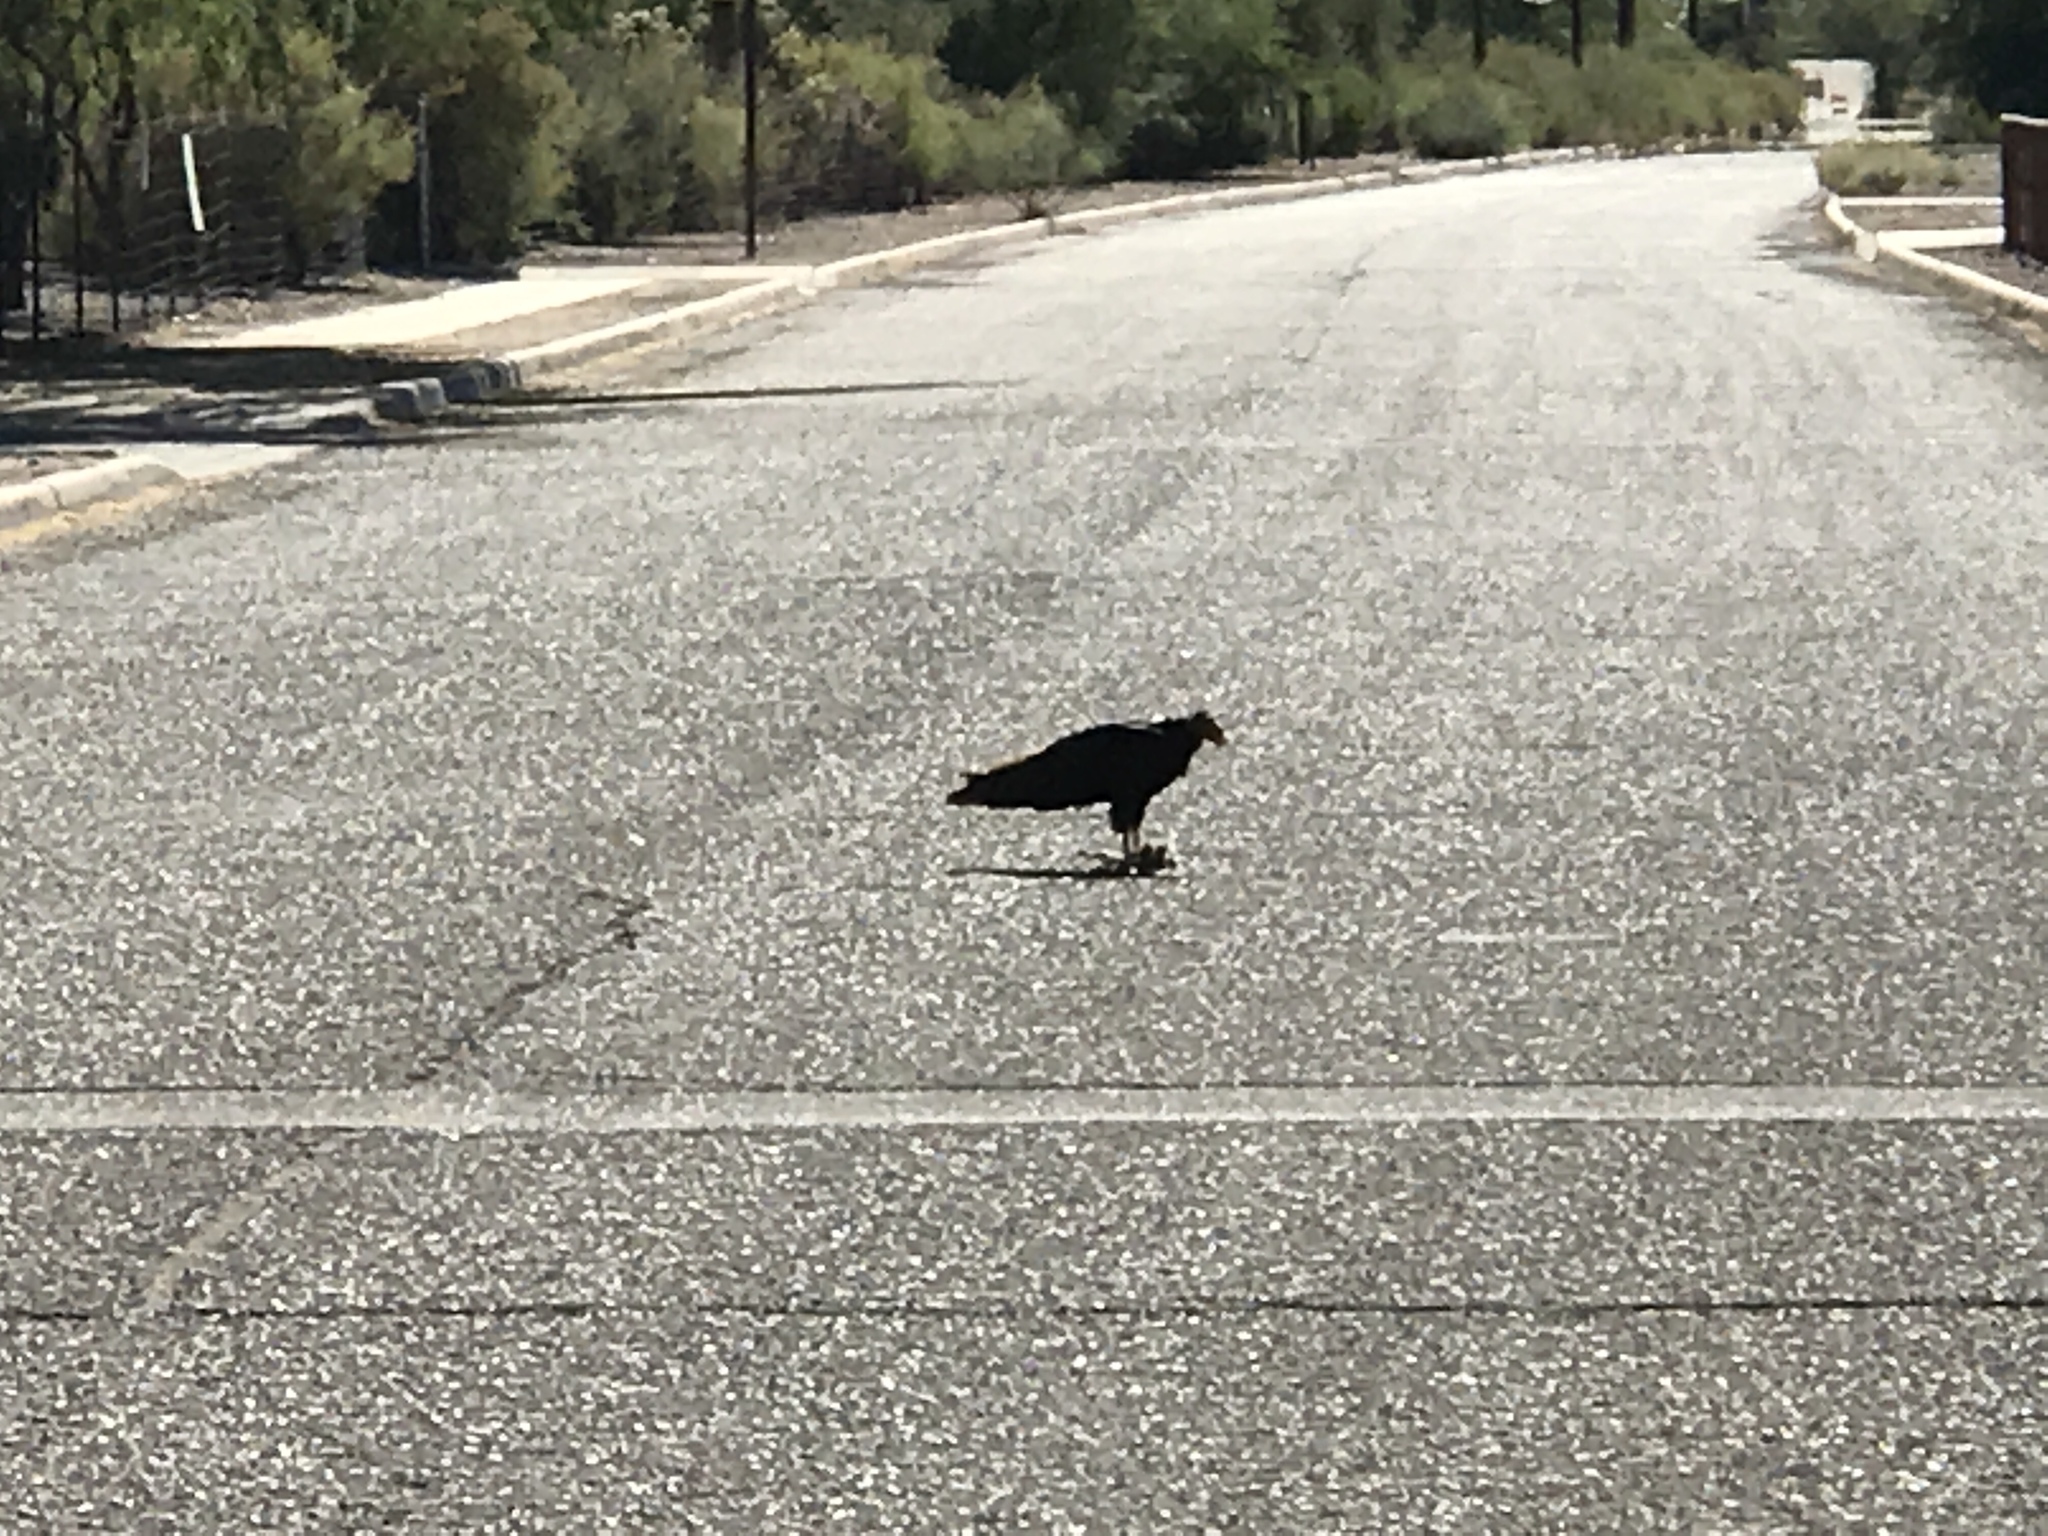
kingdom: Animalia
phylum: Chordata
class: Aves
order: Accipitriformes
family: Cathartidae
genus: Cathartes
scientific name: Cathartes aura
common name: Turkey vulture
